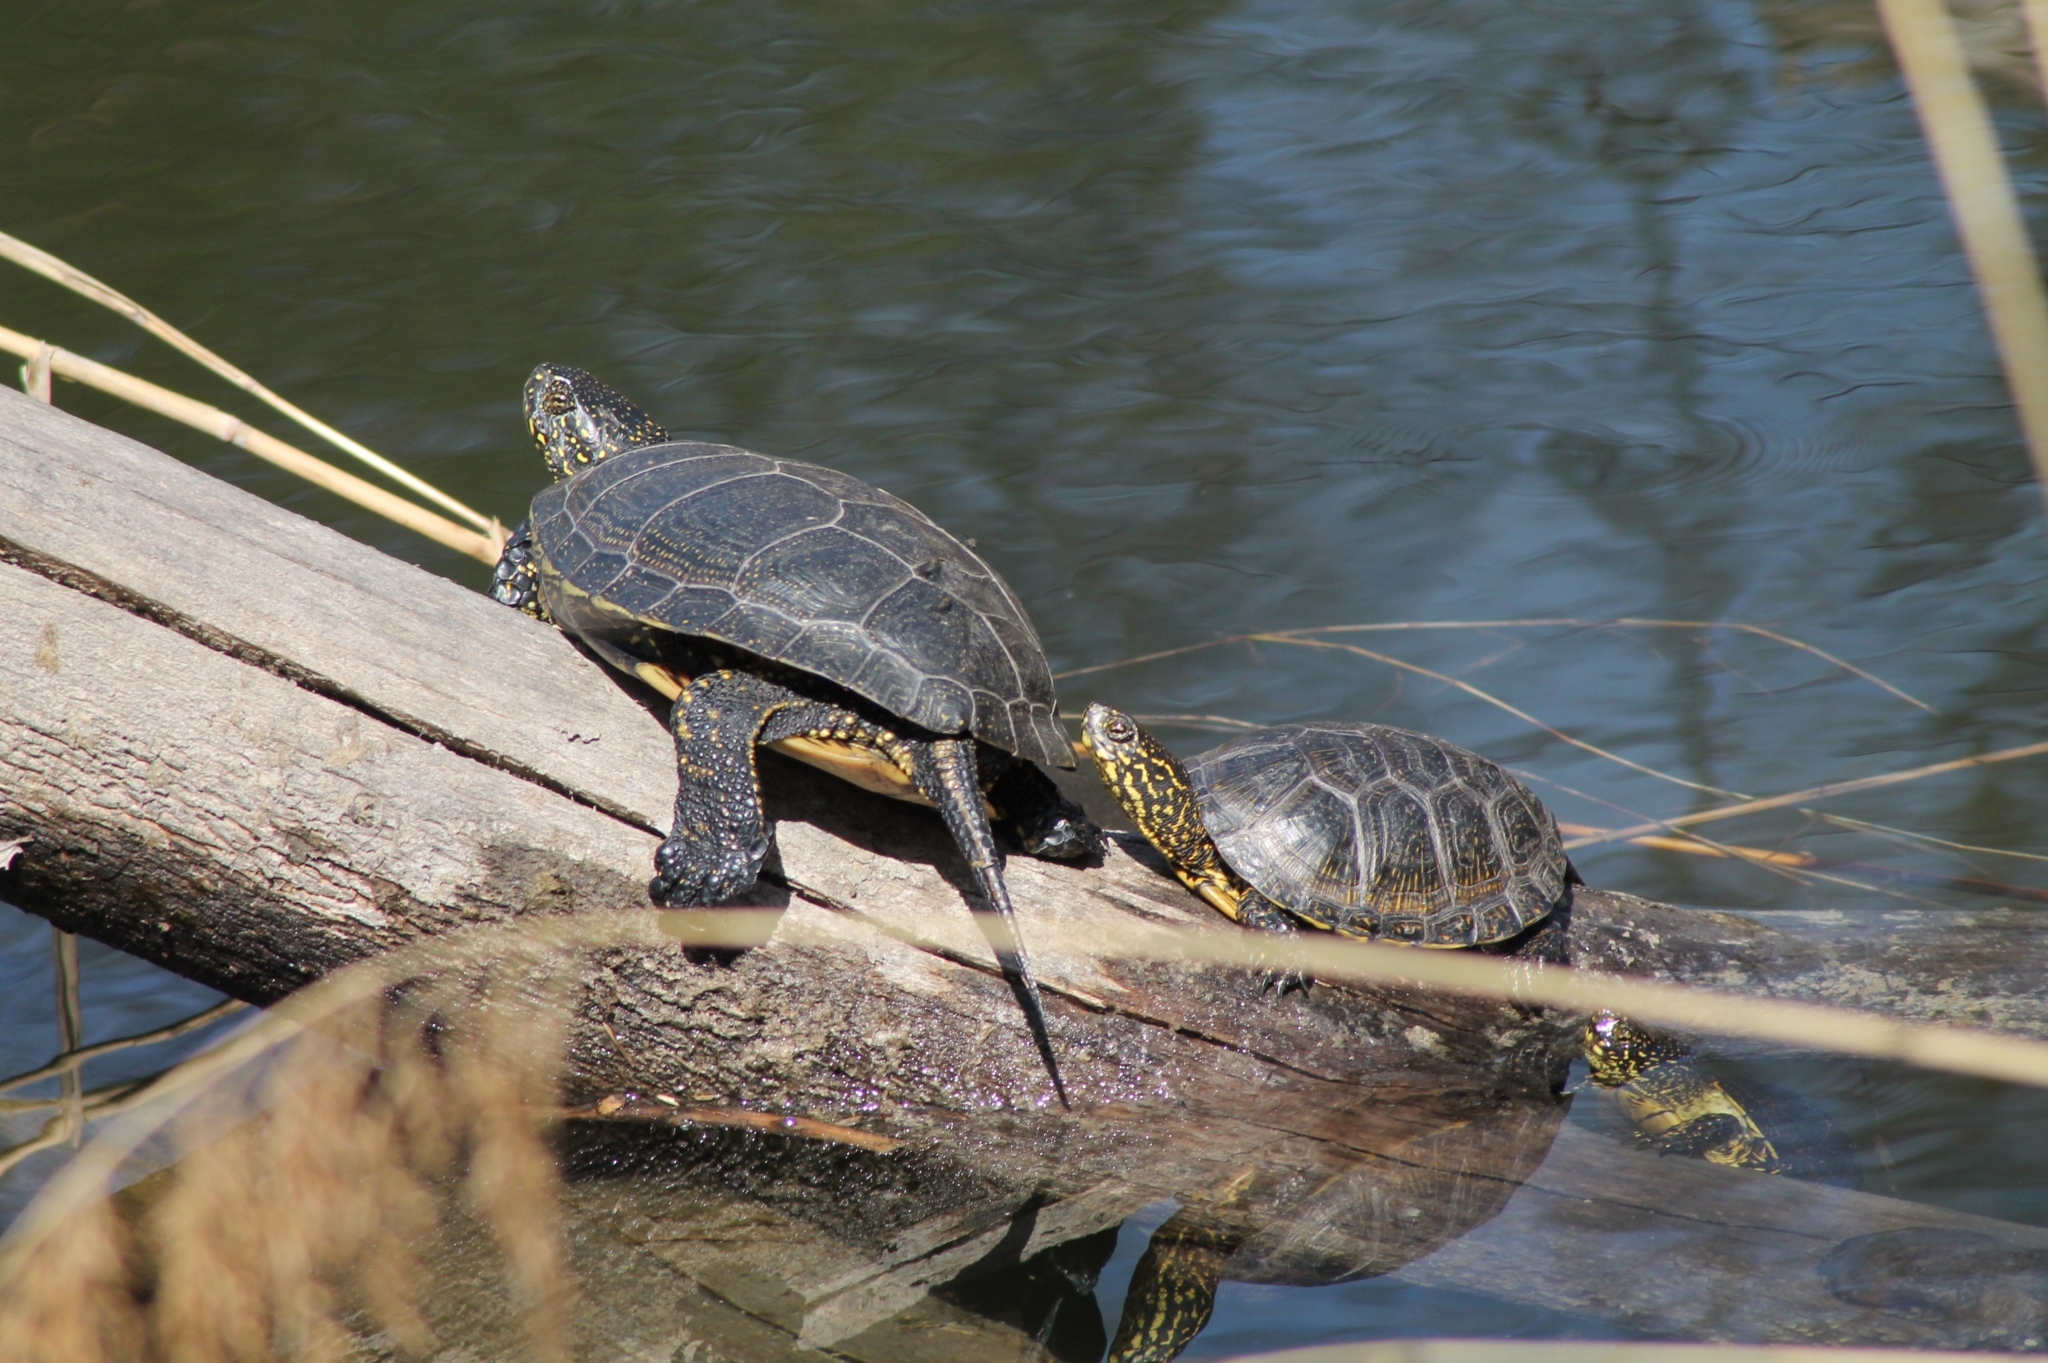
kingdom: Animalia
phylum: Chordata
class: Testudines
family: Emydidae
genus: Emys
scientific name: Emys orbicularis
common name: European pond turtle
